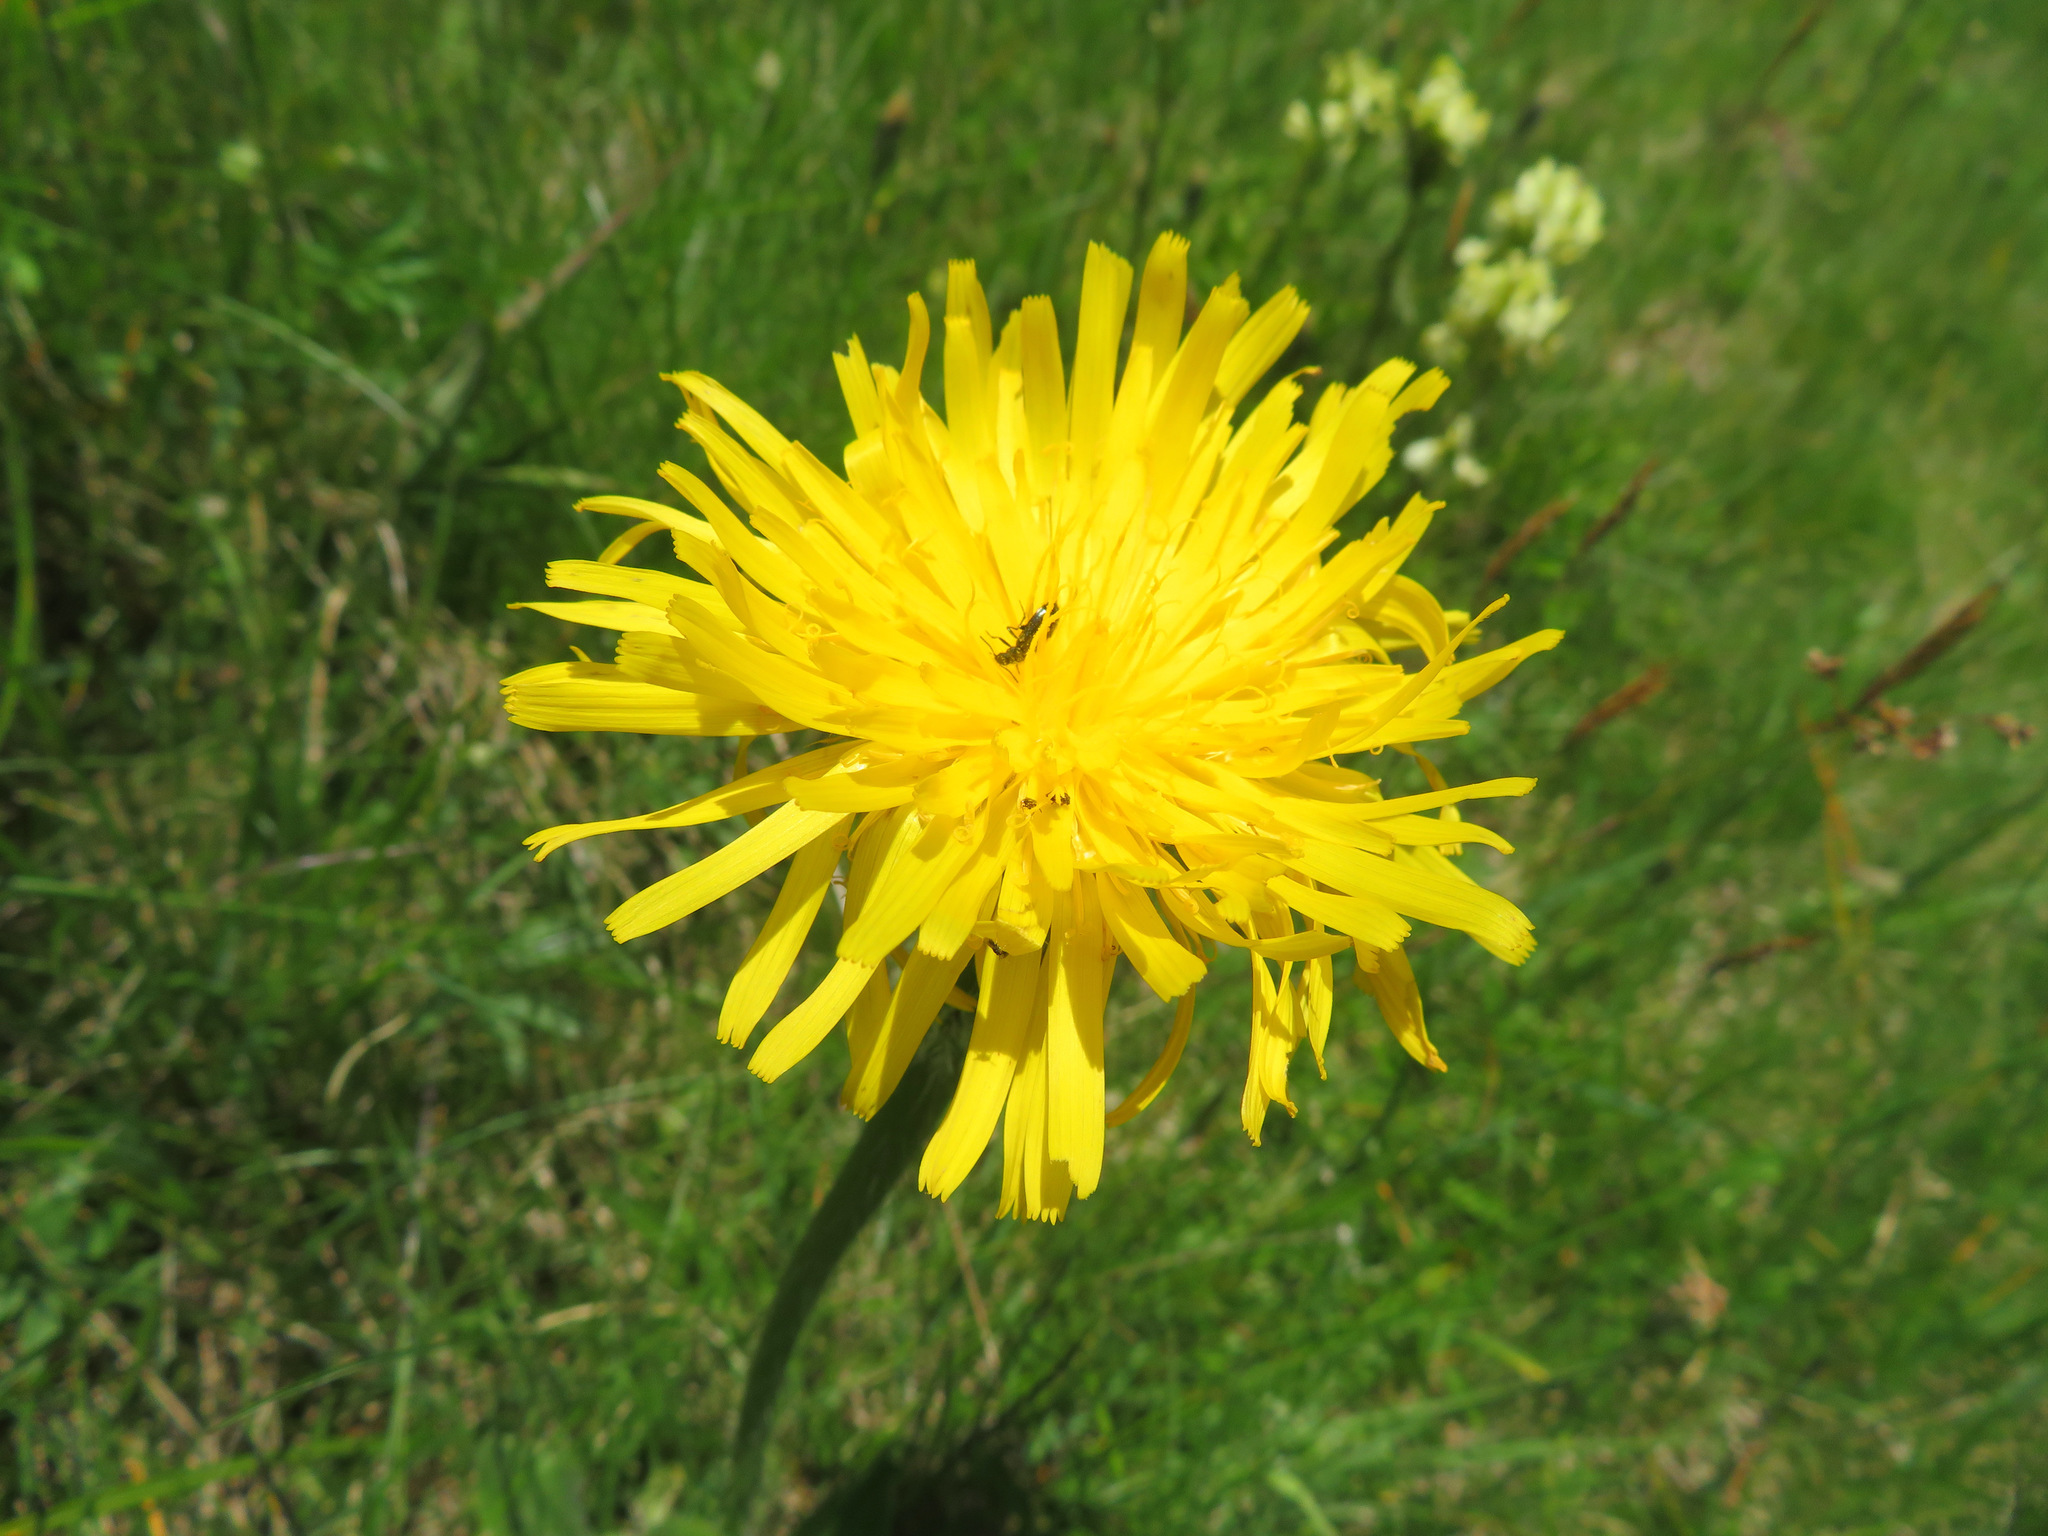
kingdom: Plantae
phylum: Tracheophyta
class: Magnoliopsida
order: Asterales
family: Asteraceae
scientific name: Asteraceae
